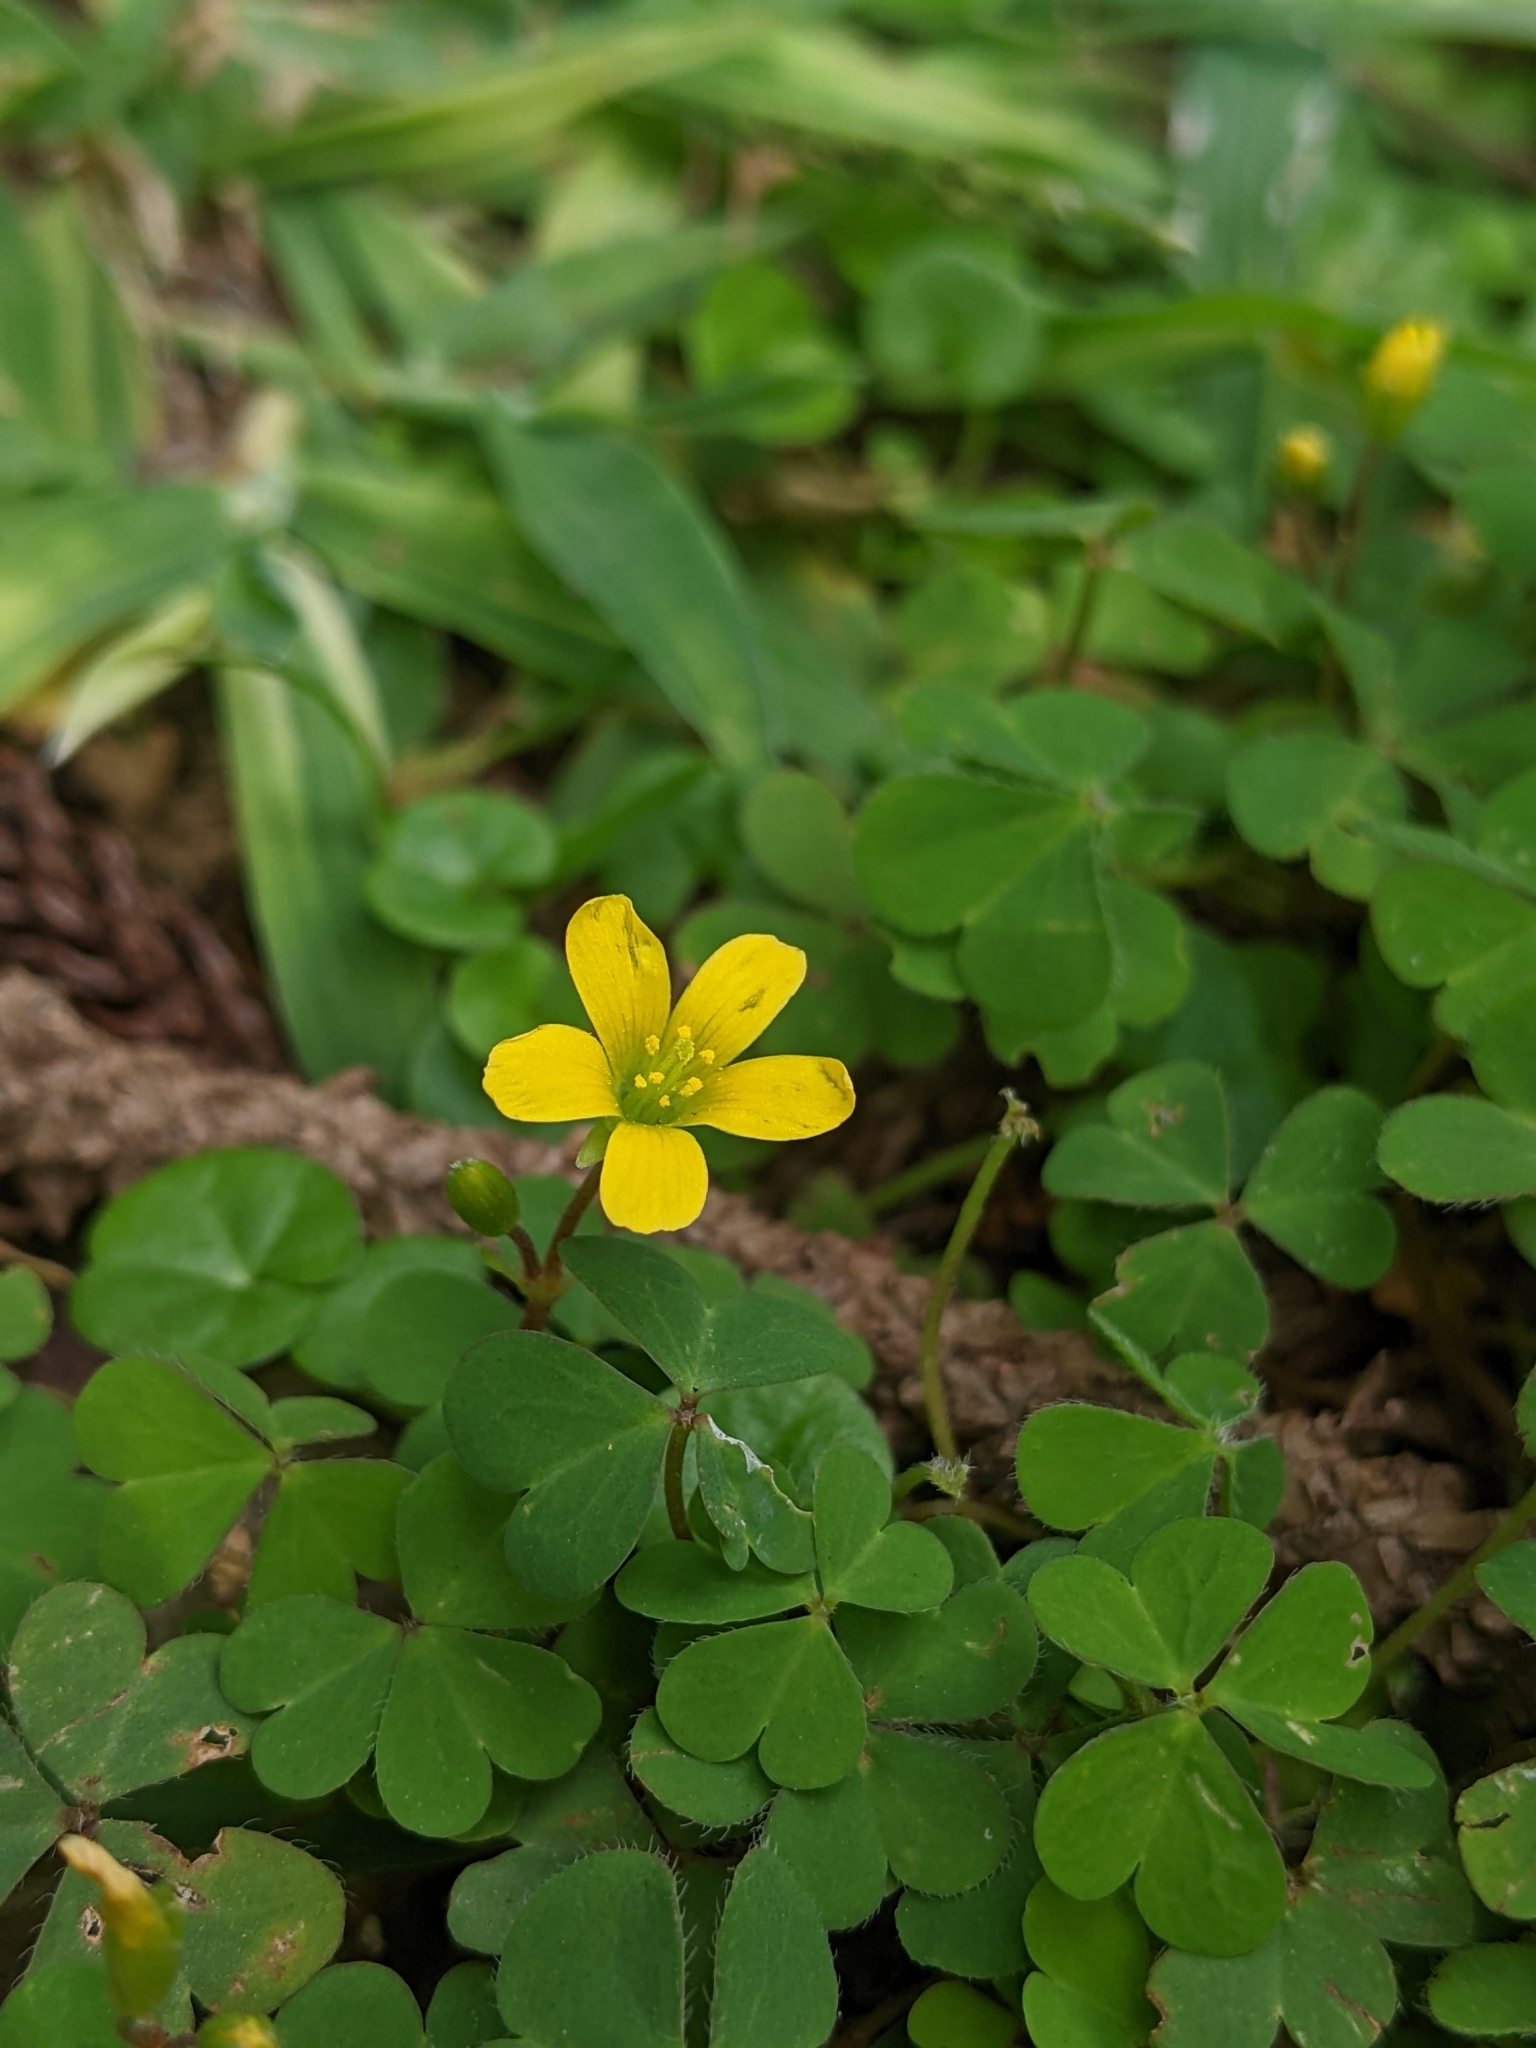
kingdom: Plantae
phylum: Tracheophyta
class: Magnoliopsida
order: Oxalidales
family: Oxalidaceae
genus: Oxalis
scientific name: Oxalis corniculata
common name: Procumbent yellow-sorrel
